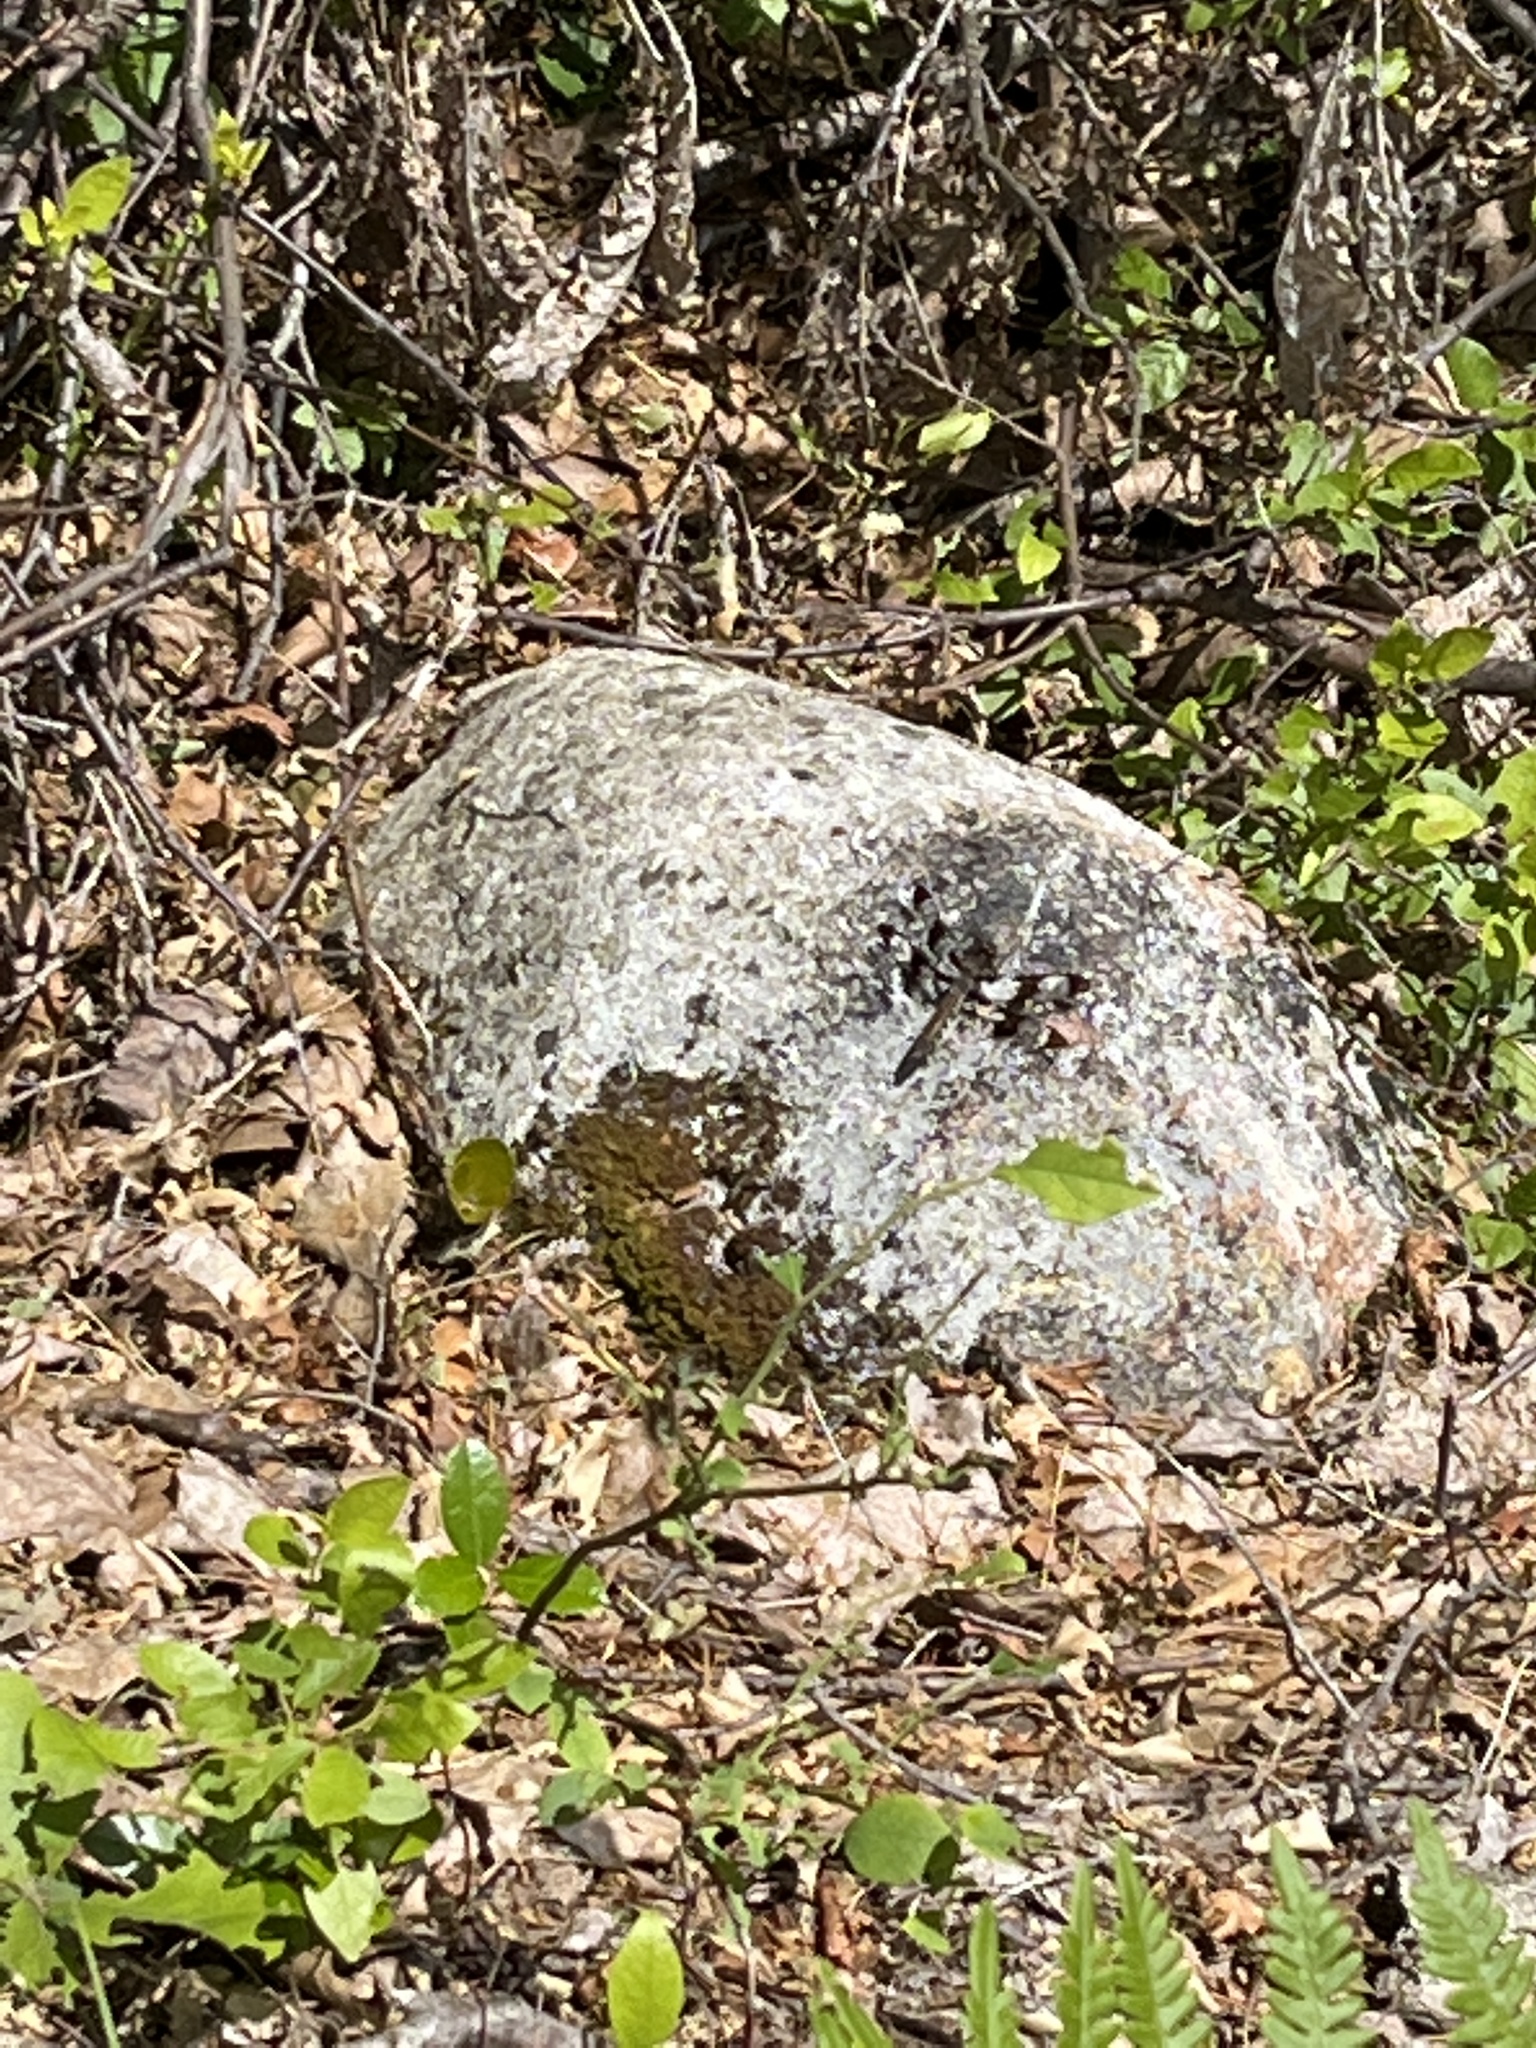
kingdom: Animalia
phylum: Arthropoda
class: Insecta
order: Odonata
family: Libellulidae
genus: Plathemis
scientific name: Plathemis lydia
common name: Common whitetail
